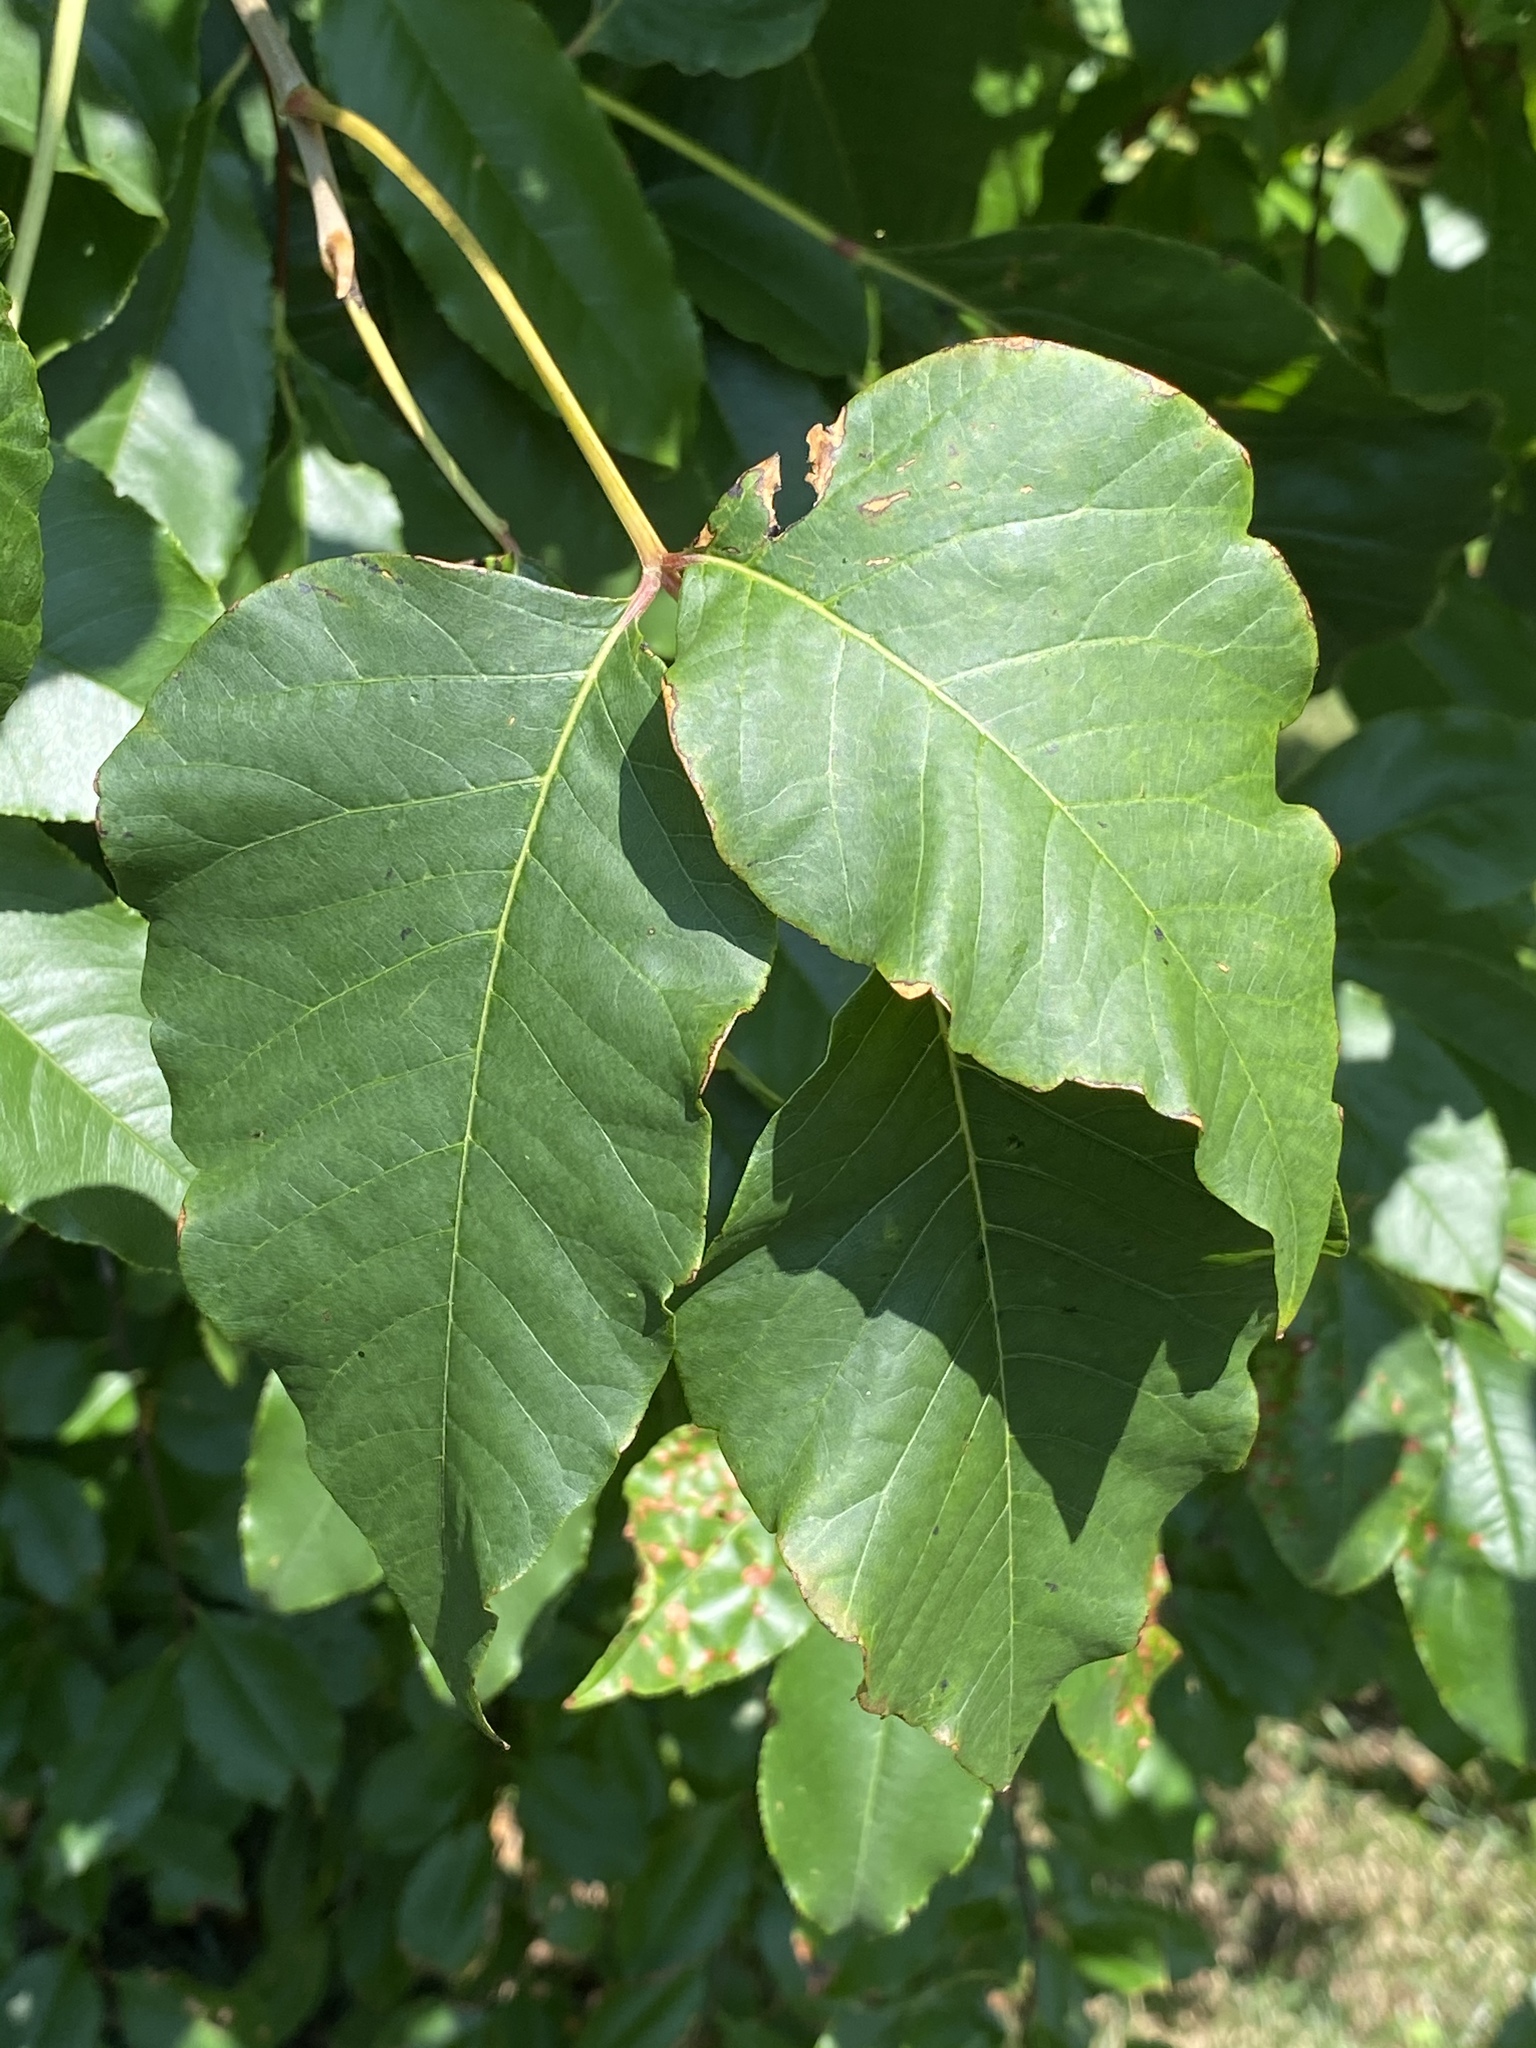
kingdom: Plantae
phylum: Tracheophyta
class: Magnoliopsida
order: Sapindales
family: Anacardiaceae
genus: Toxicodendron
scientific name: Toxicodendron radicans
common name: Poison ivy
